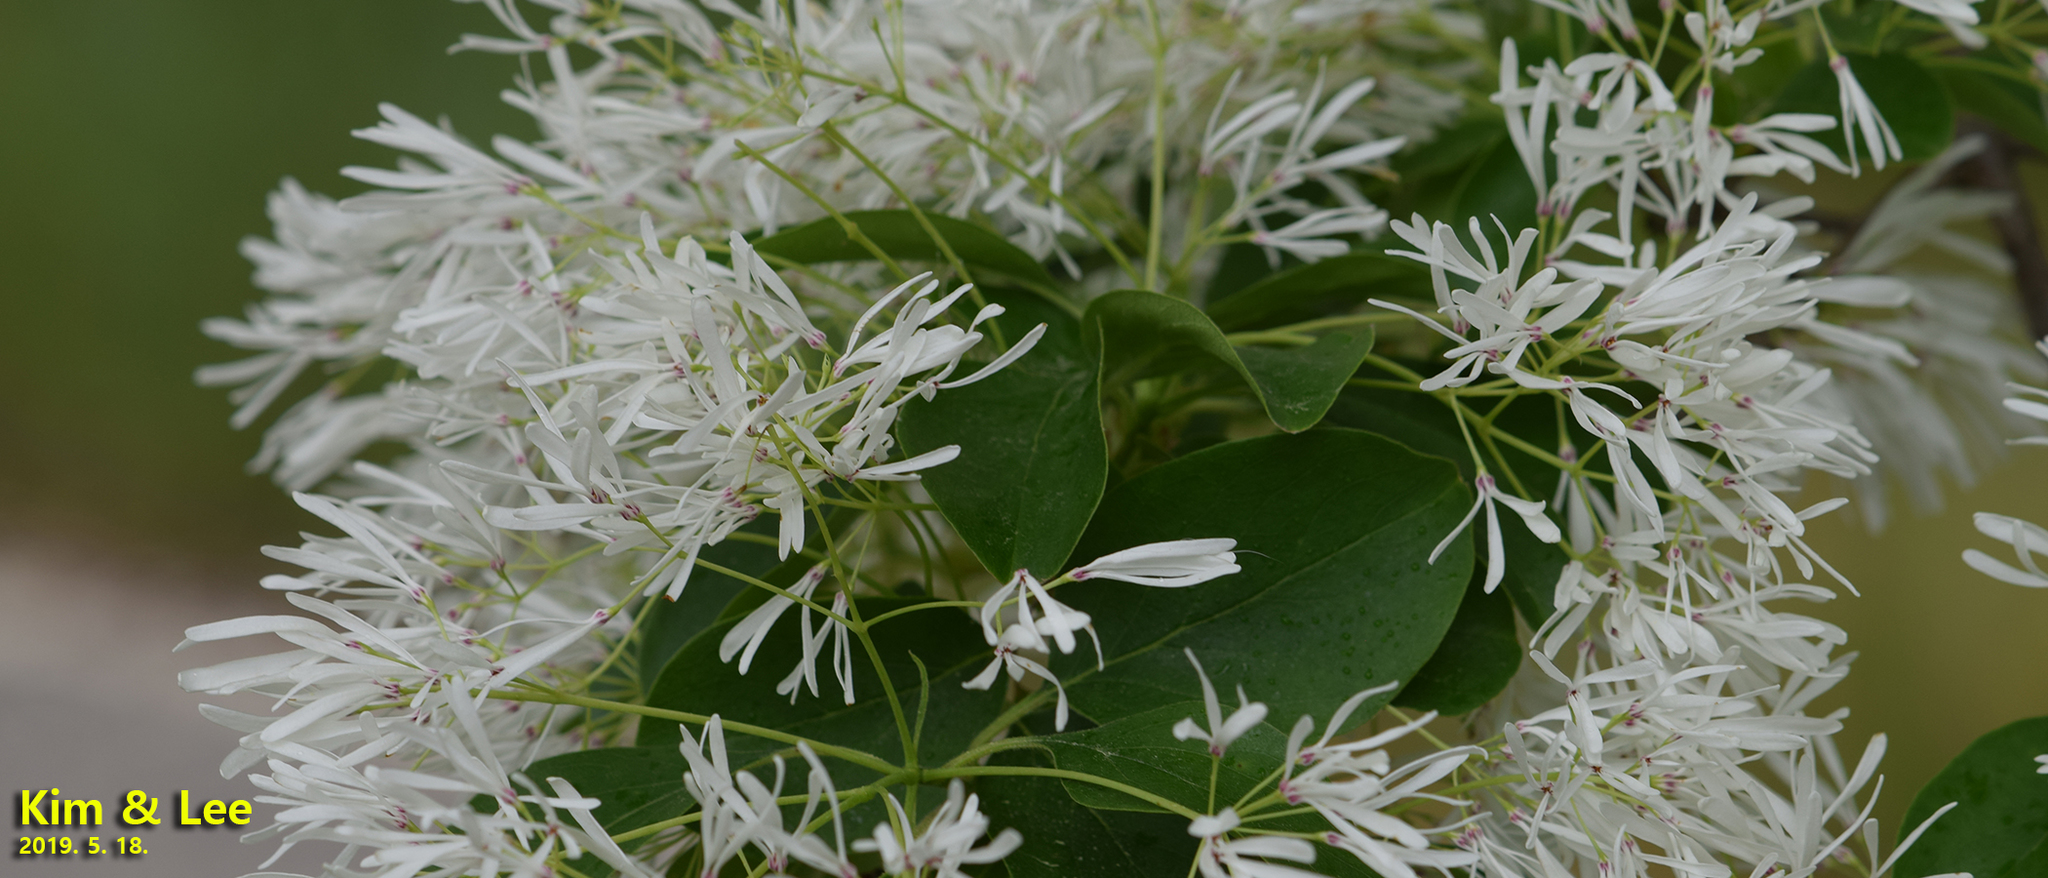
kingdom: Plantae
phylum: Tracheophyta
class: Magnoliopsida
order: Lamiales
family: Oleaceae
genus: Chionanthus
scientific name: Chionanthus retusus
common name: Chinese fringetree
